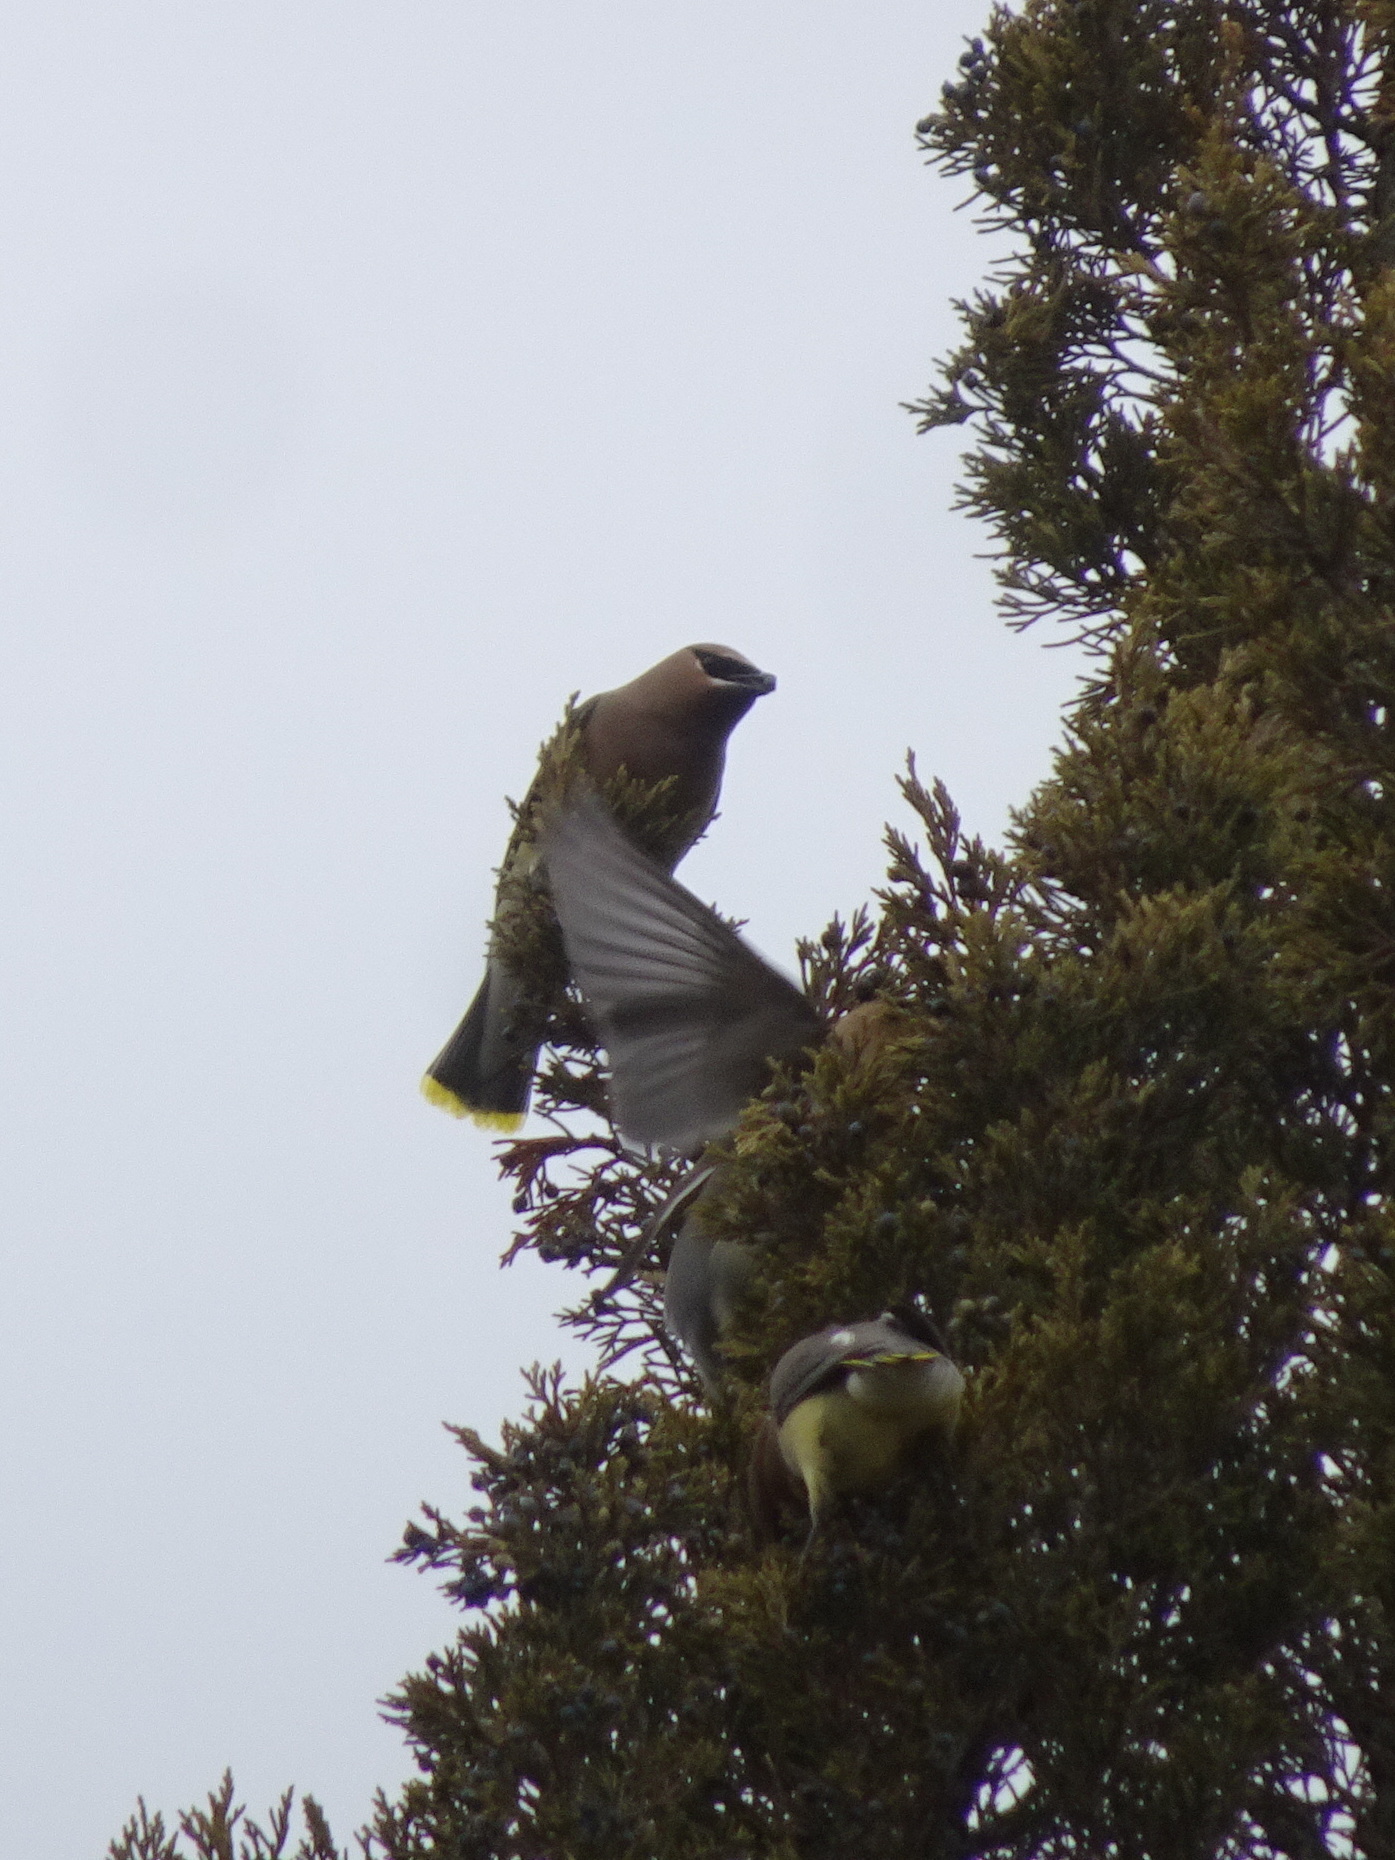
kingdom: Animalia
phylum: Chordata
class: Aves
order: Passeriformes
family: Bombycillidae
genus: Bombycilla
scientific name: Bombycilla cedrorum
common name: Cedar waxwing
